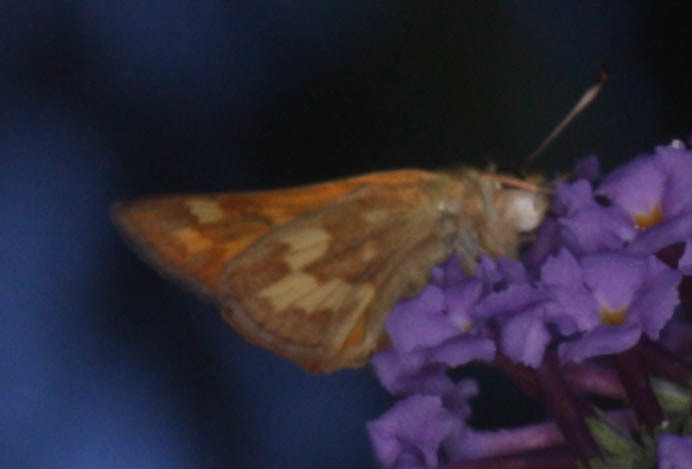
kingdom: Animalia
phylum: Arthropoda
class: Insecta
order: Lepidoptera
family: Hesperiidae
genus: Ochlodes
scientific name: Ochlodes sylvanoides
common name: Woodland skipper
